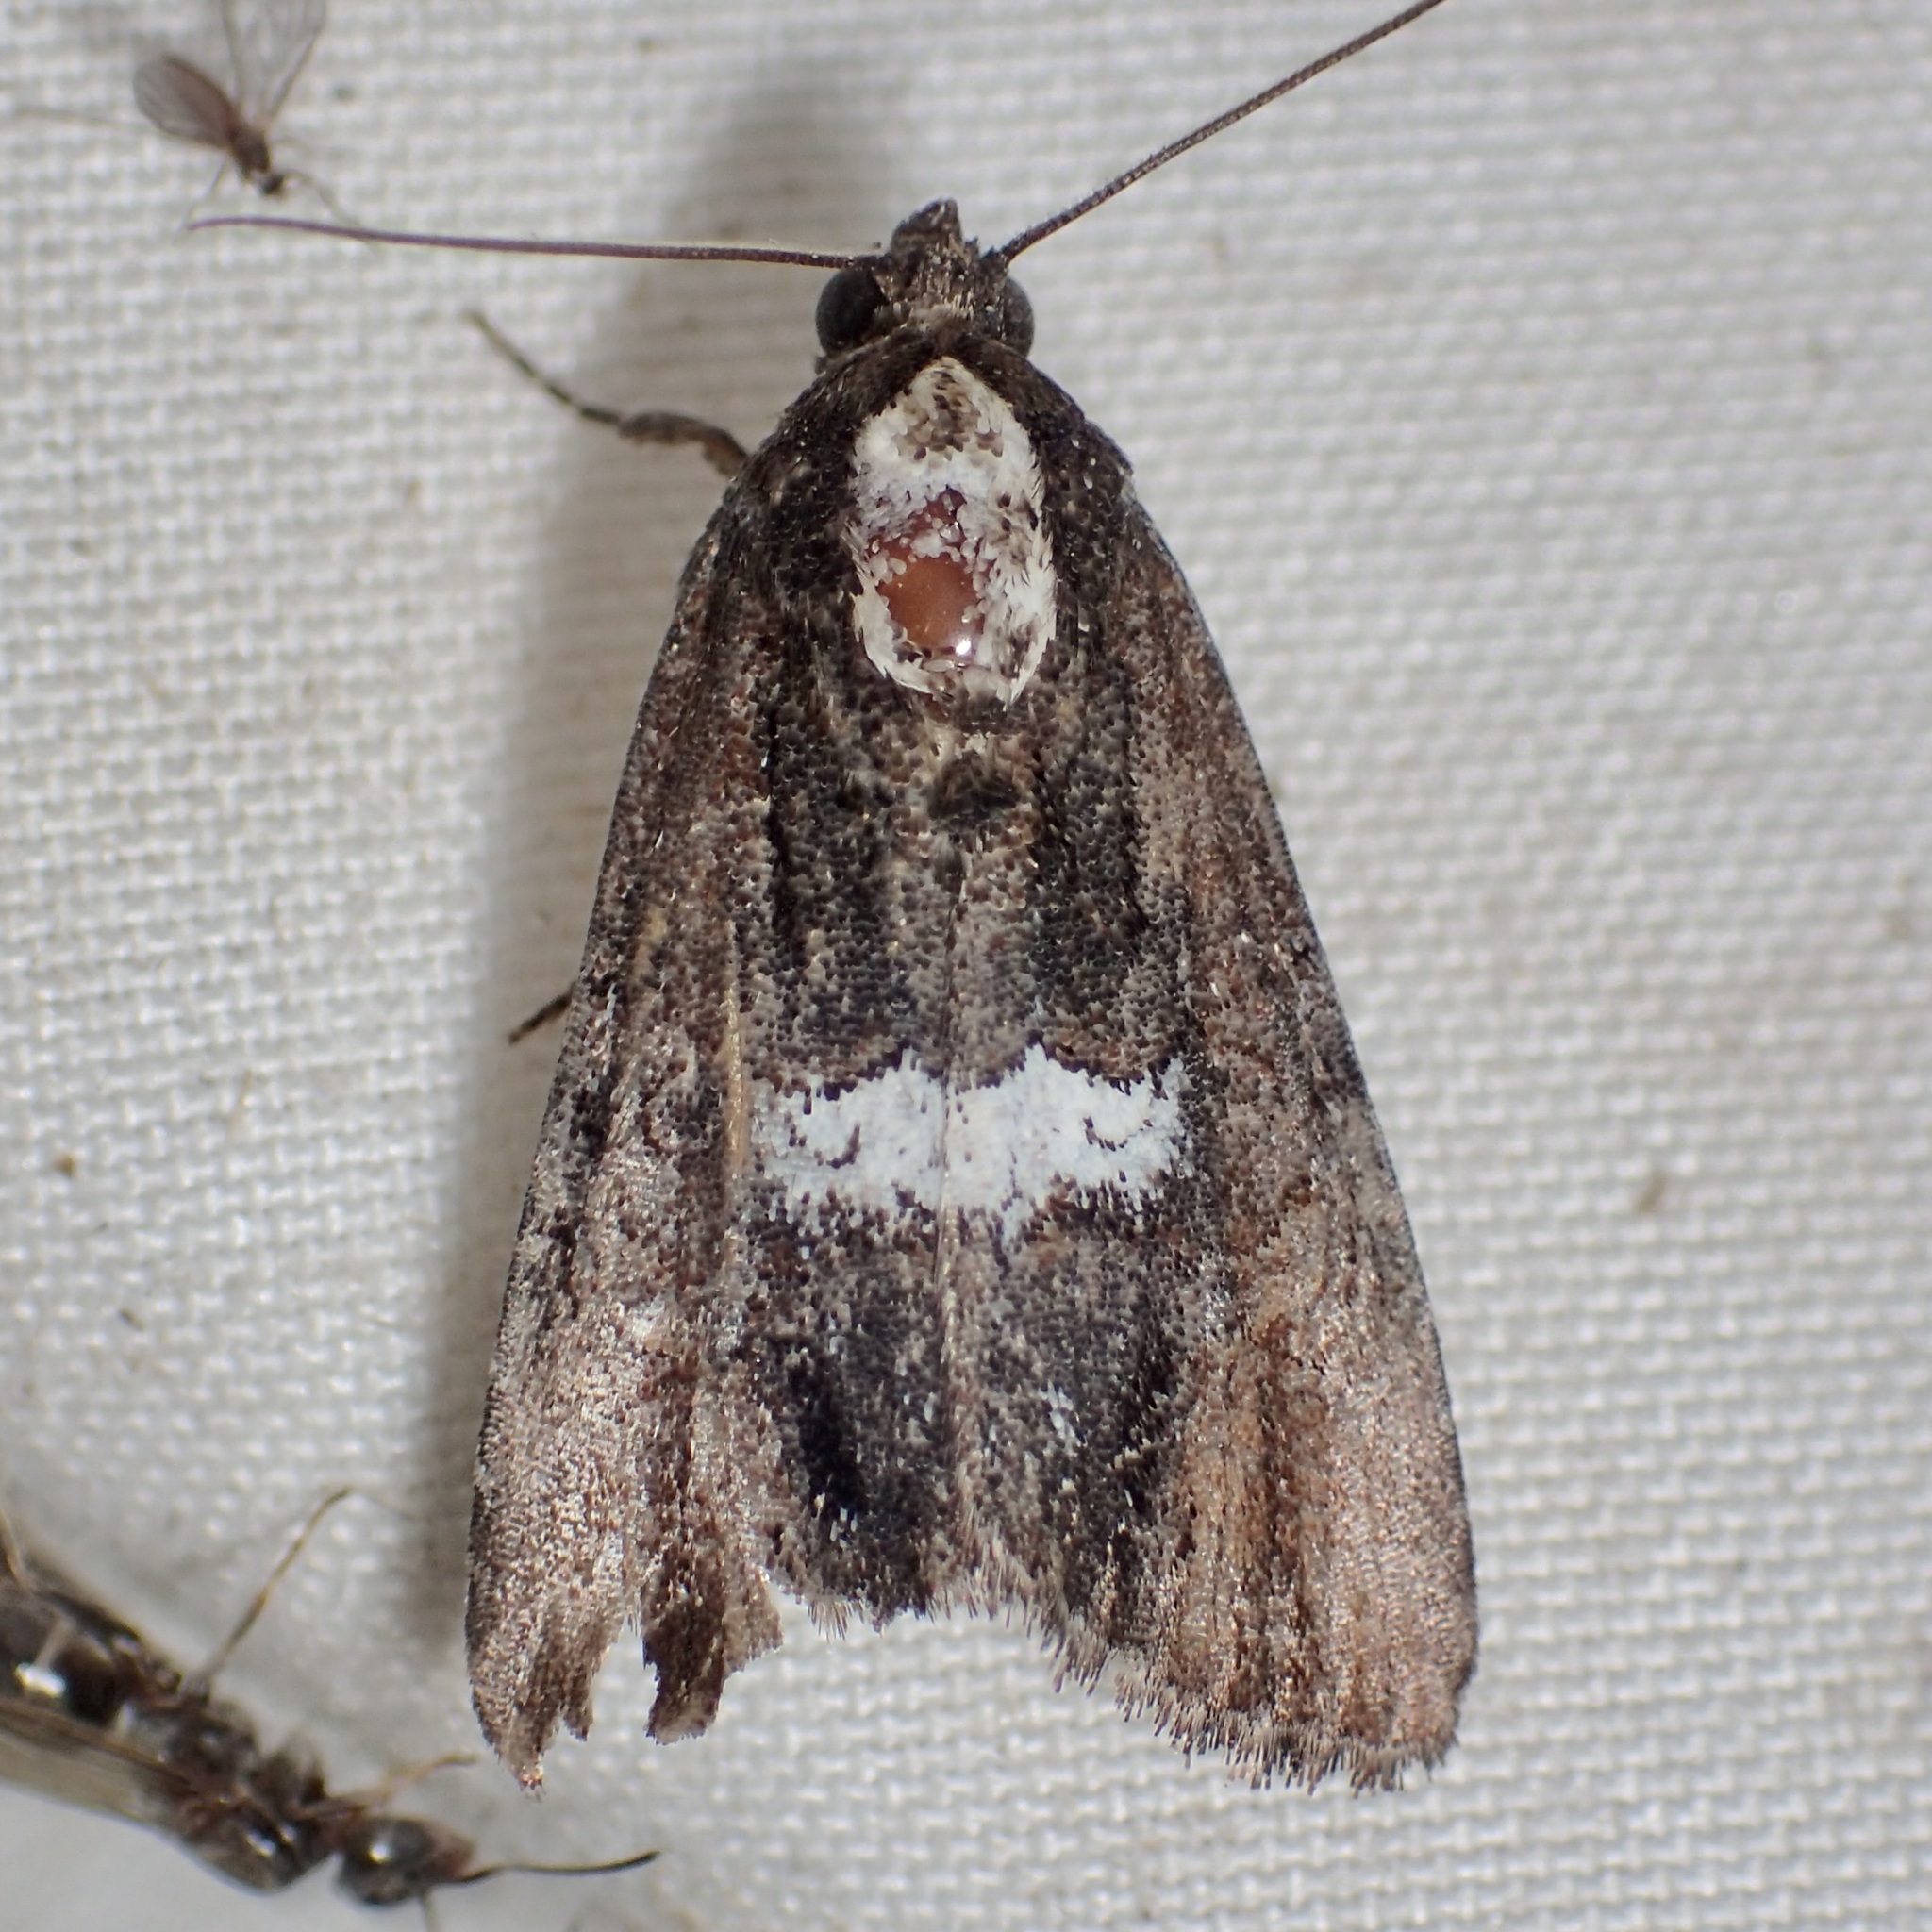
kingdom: Animalia
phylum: Arthropoda
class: Insecta
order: Lepidoptera
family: Noctuidae
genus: Bryolymnia
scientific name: Bryolymnia semifascia
